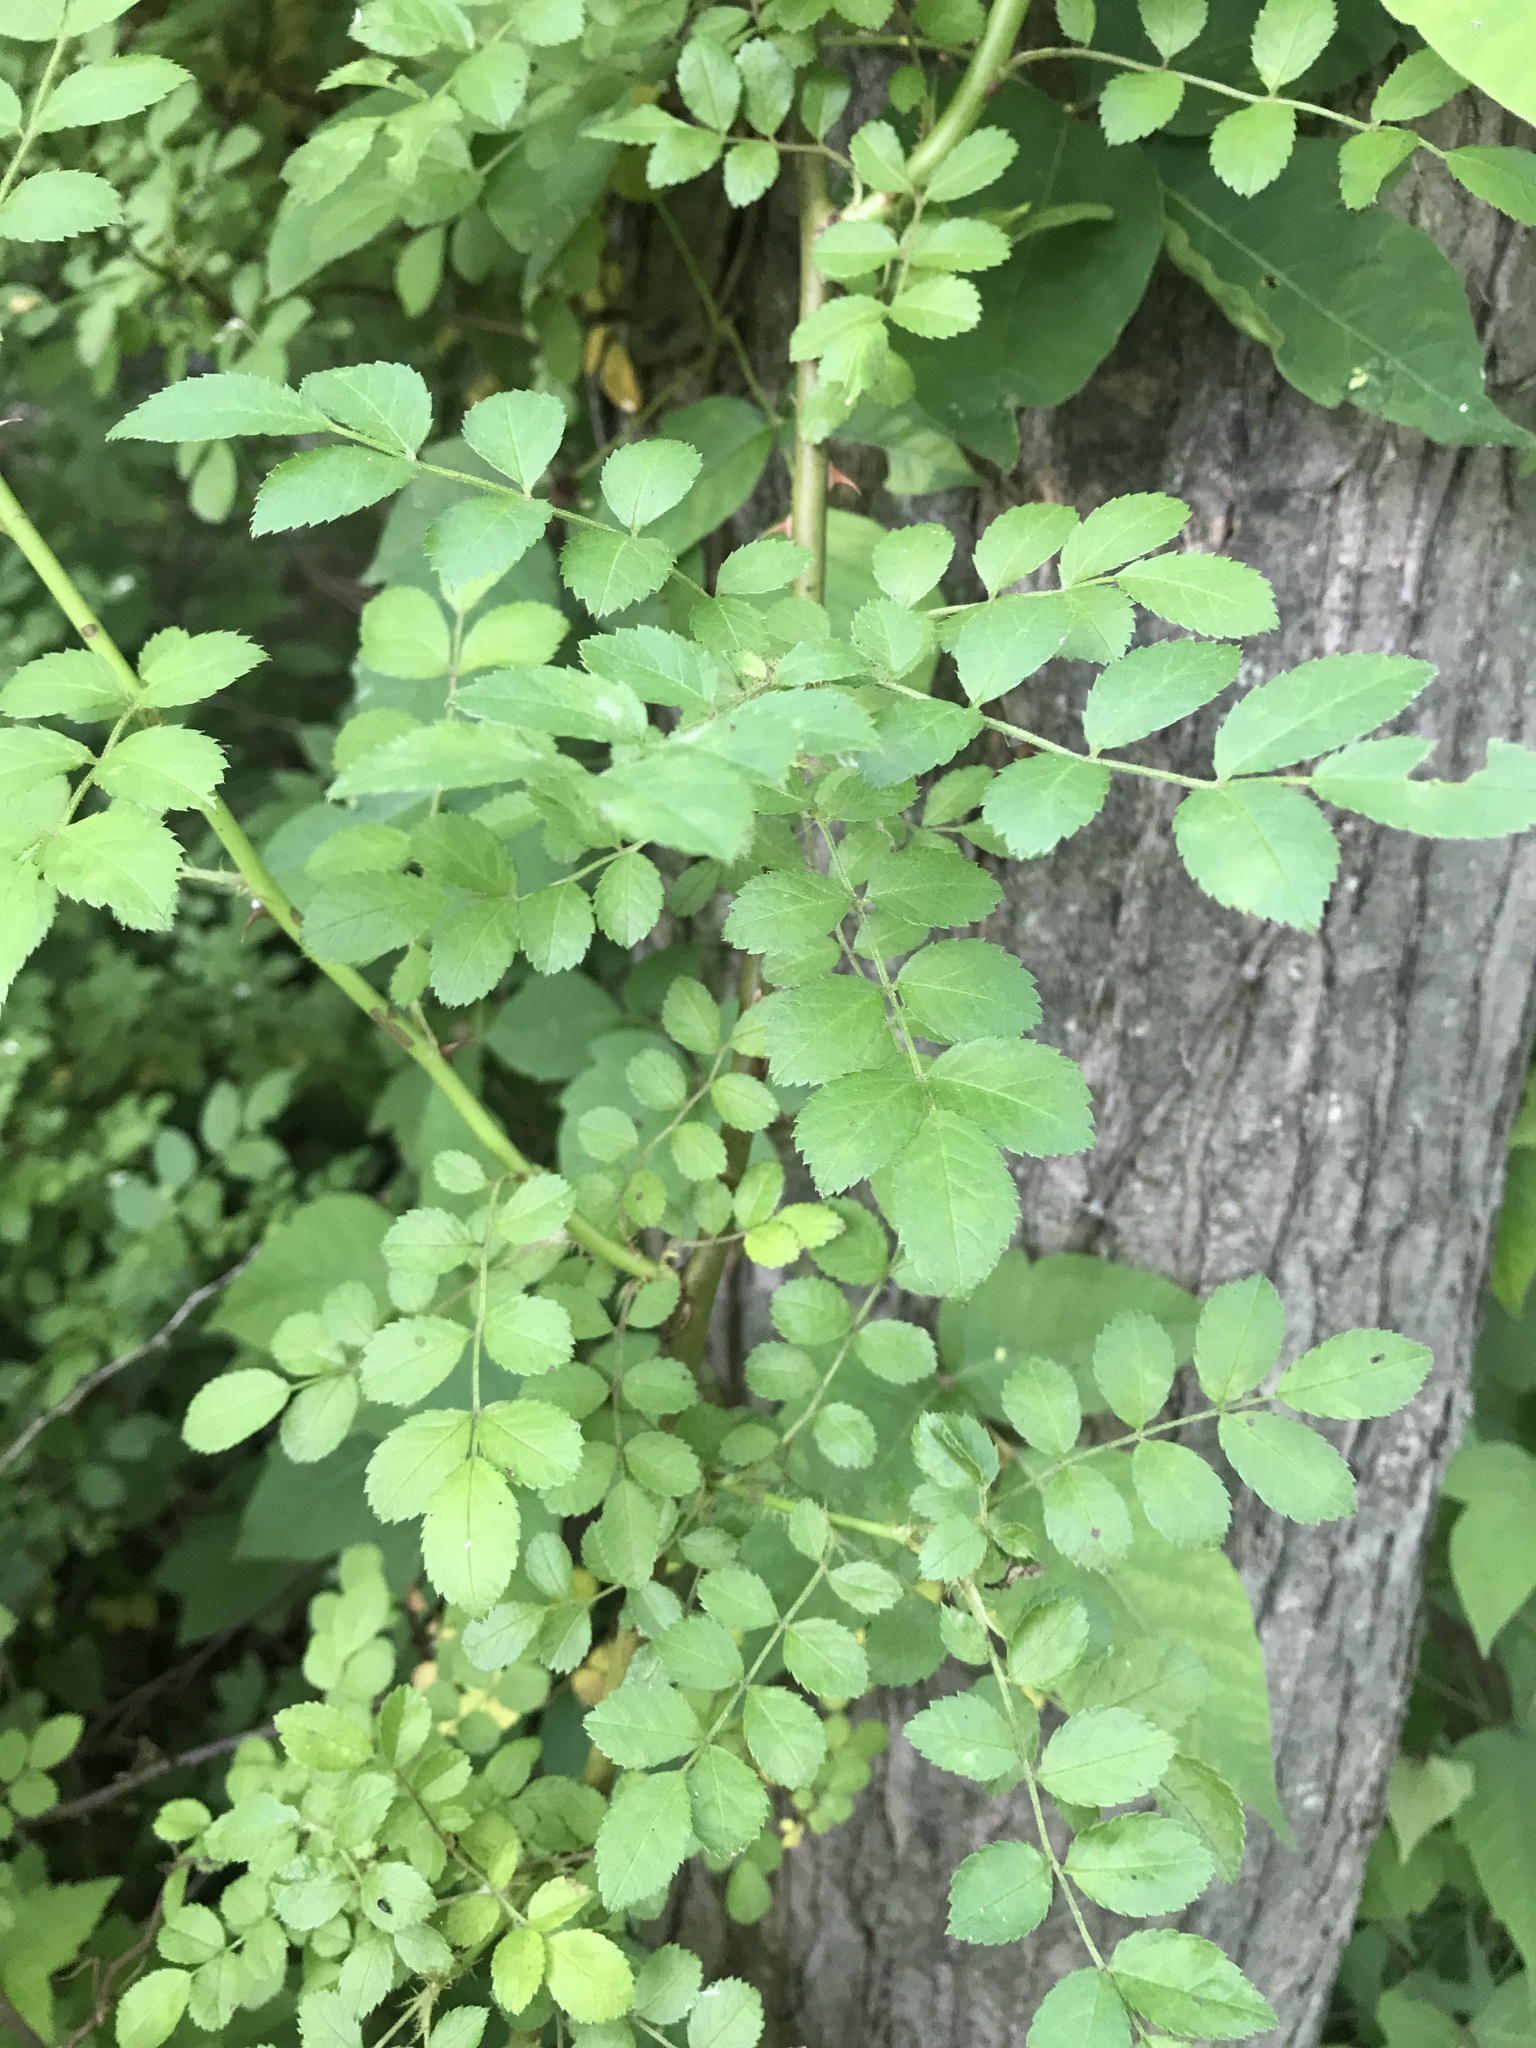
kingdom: Plantae
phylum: Tracheophyta
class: Magnoliopsida
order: Rosales
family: Rosaceae
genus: Rosa
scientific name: Rosa multiflora
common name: Multiflora rose
